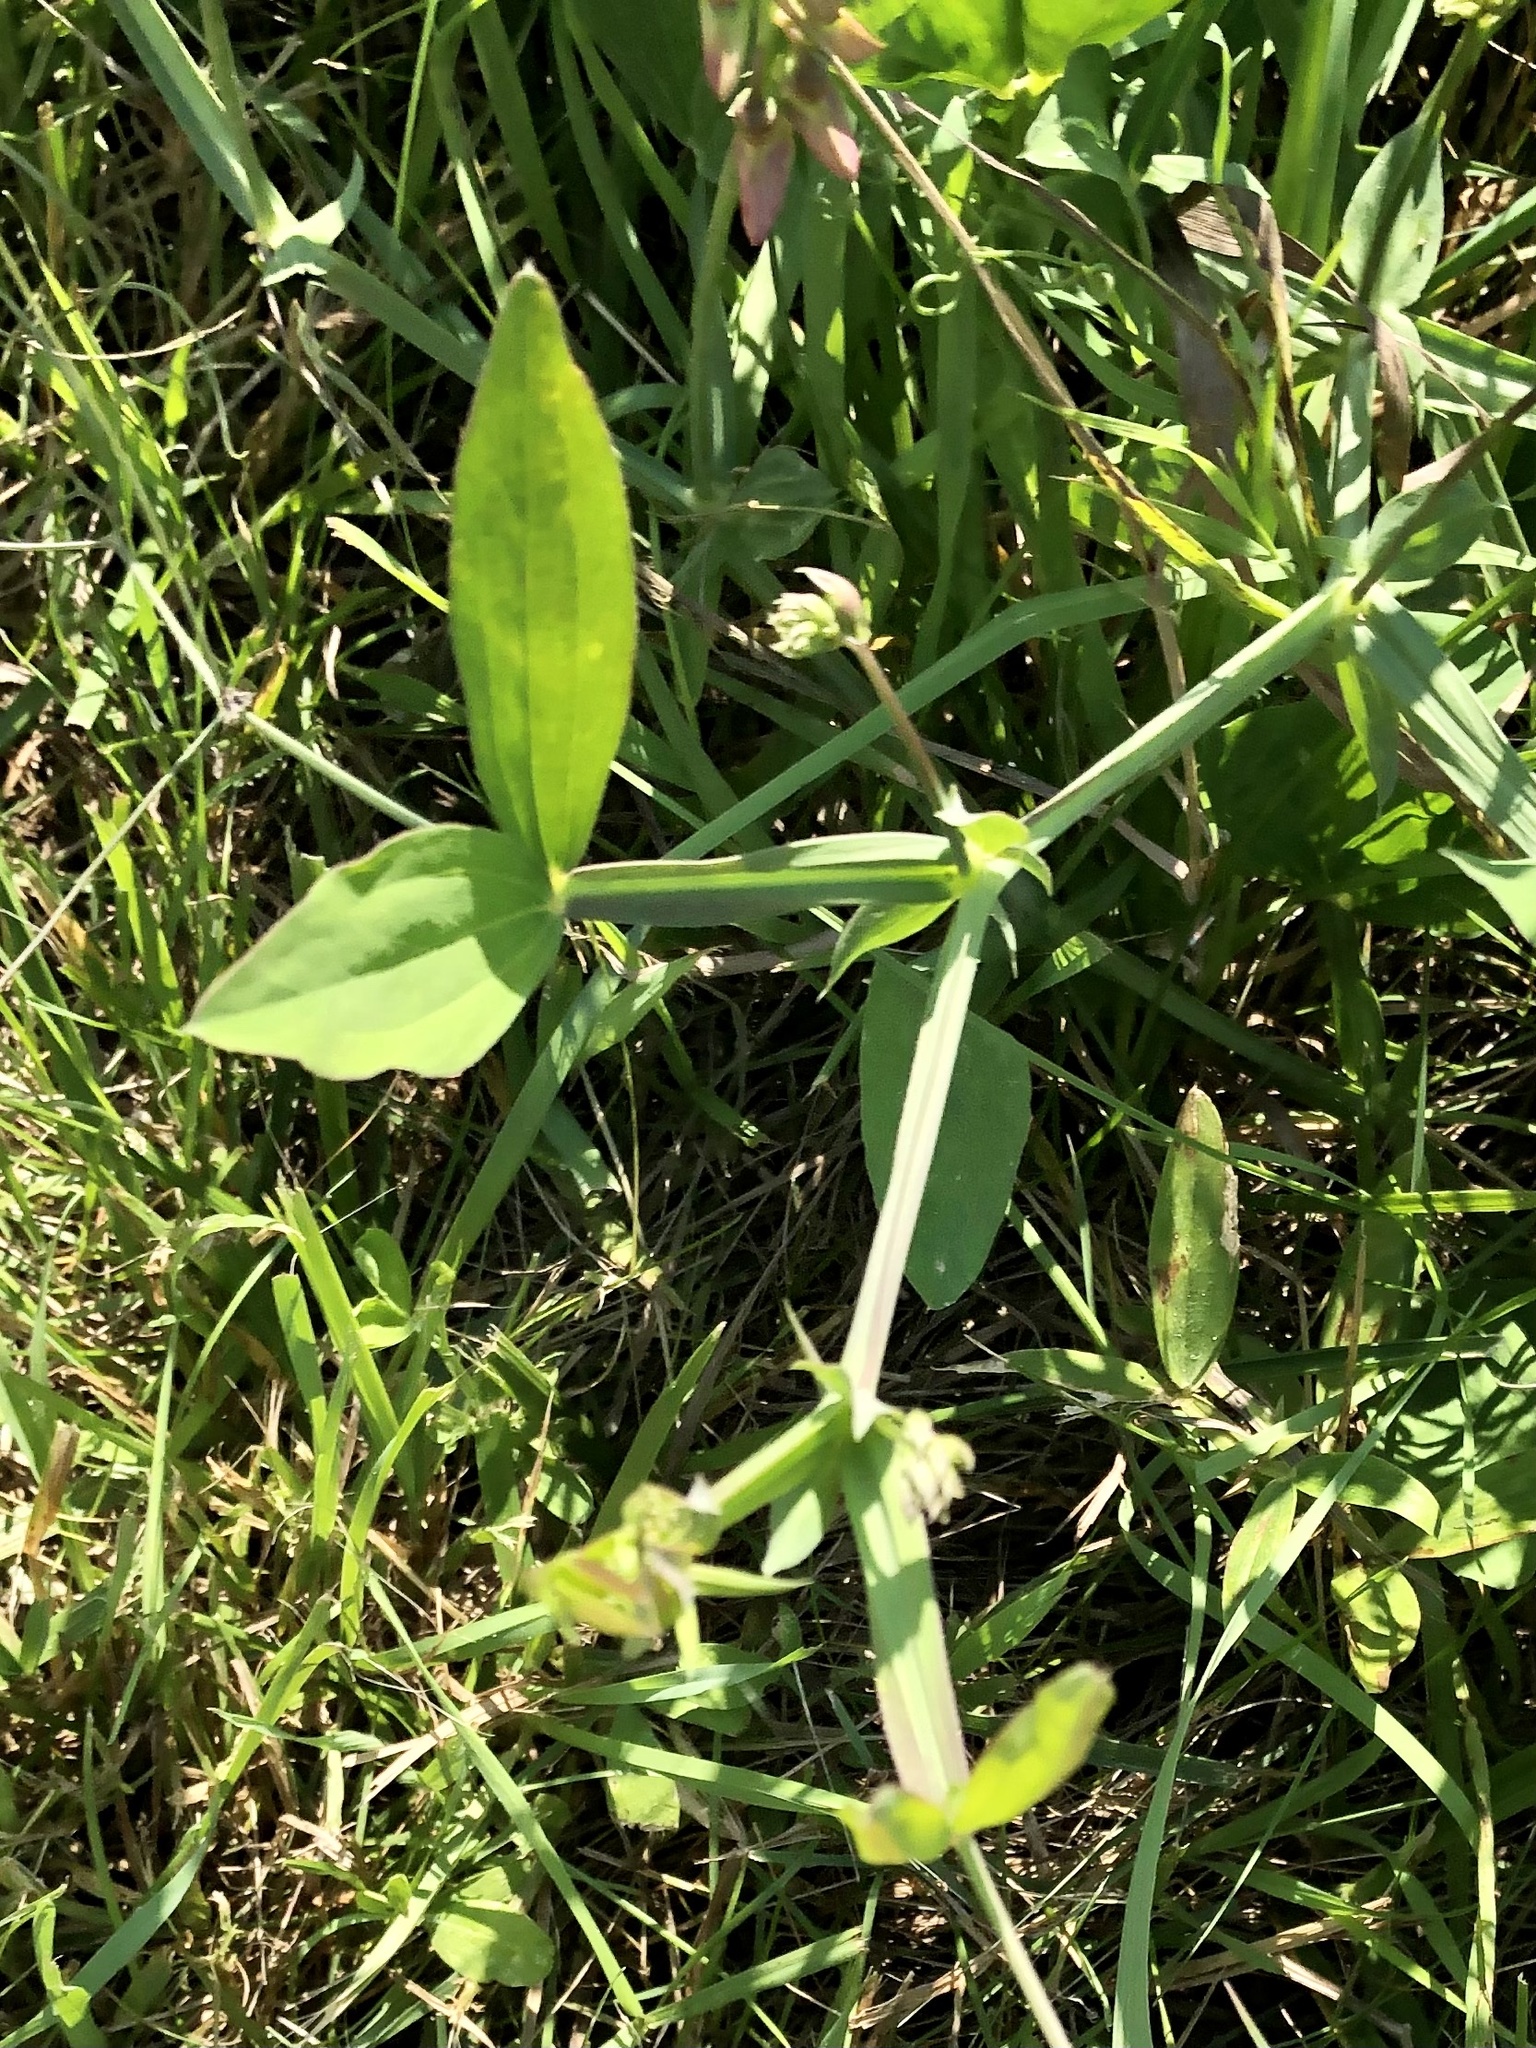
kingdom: Plantae
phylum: Tracheophyta
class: Magnoliopsida
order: Fabales
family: Fabaceae
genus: Lathyrus
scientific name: Lathyrus latifolius
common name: Perennial pea
